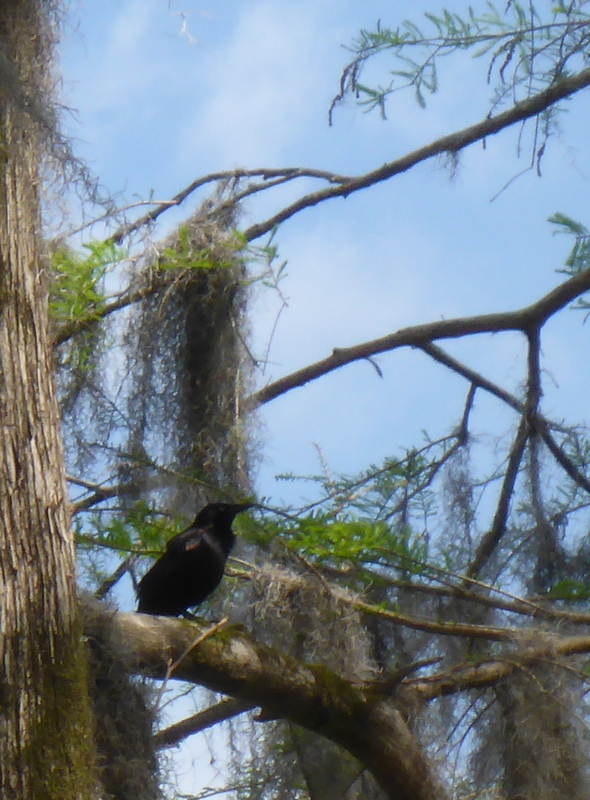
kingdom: Animalia
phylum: Chordata
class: Aves
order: Passeriformes
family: Icteridae
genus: Agelaius
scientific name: Agelaius phoeniceus
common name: Red-winged blackbird
